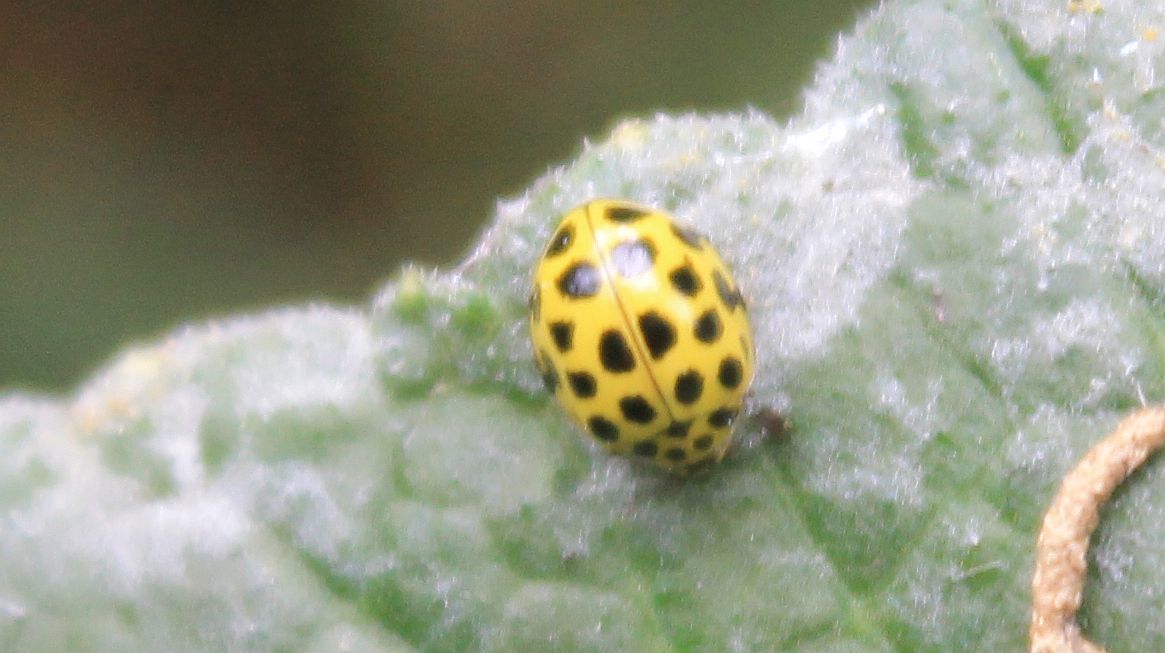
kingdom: Animalia
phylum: Arthropoda
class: Insecta
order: Coleoptera
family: Coccinellidae
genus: Psyllobora
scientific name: Psyllobora vigintiduopunctata
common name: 22-spot ladybird
